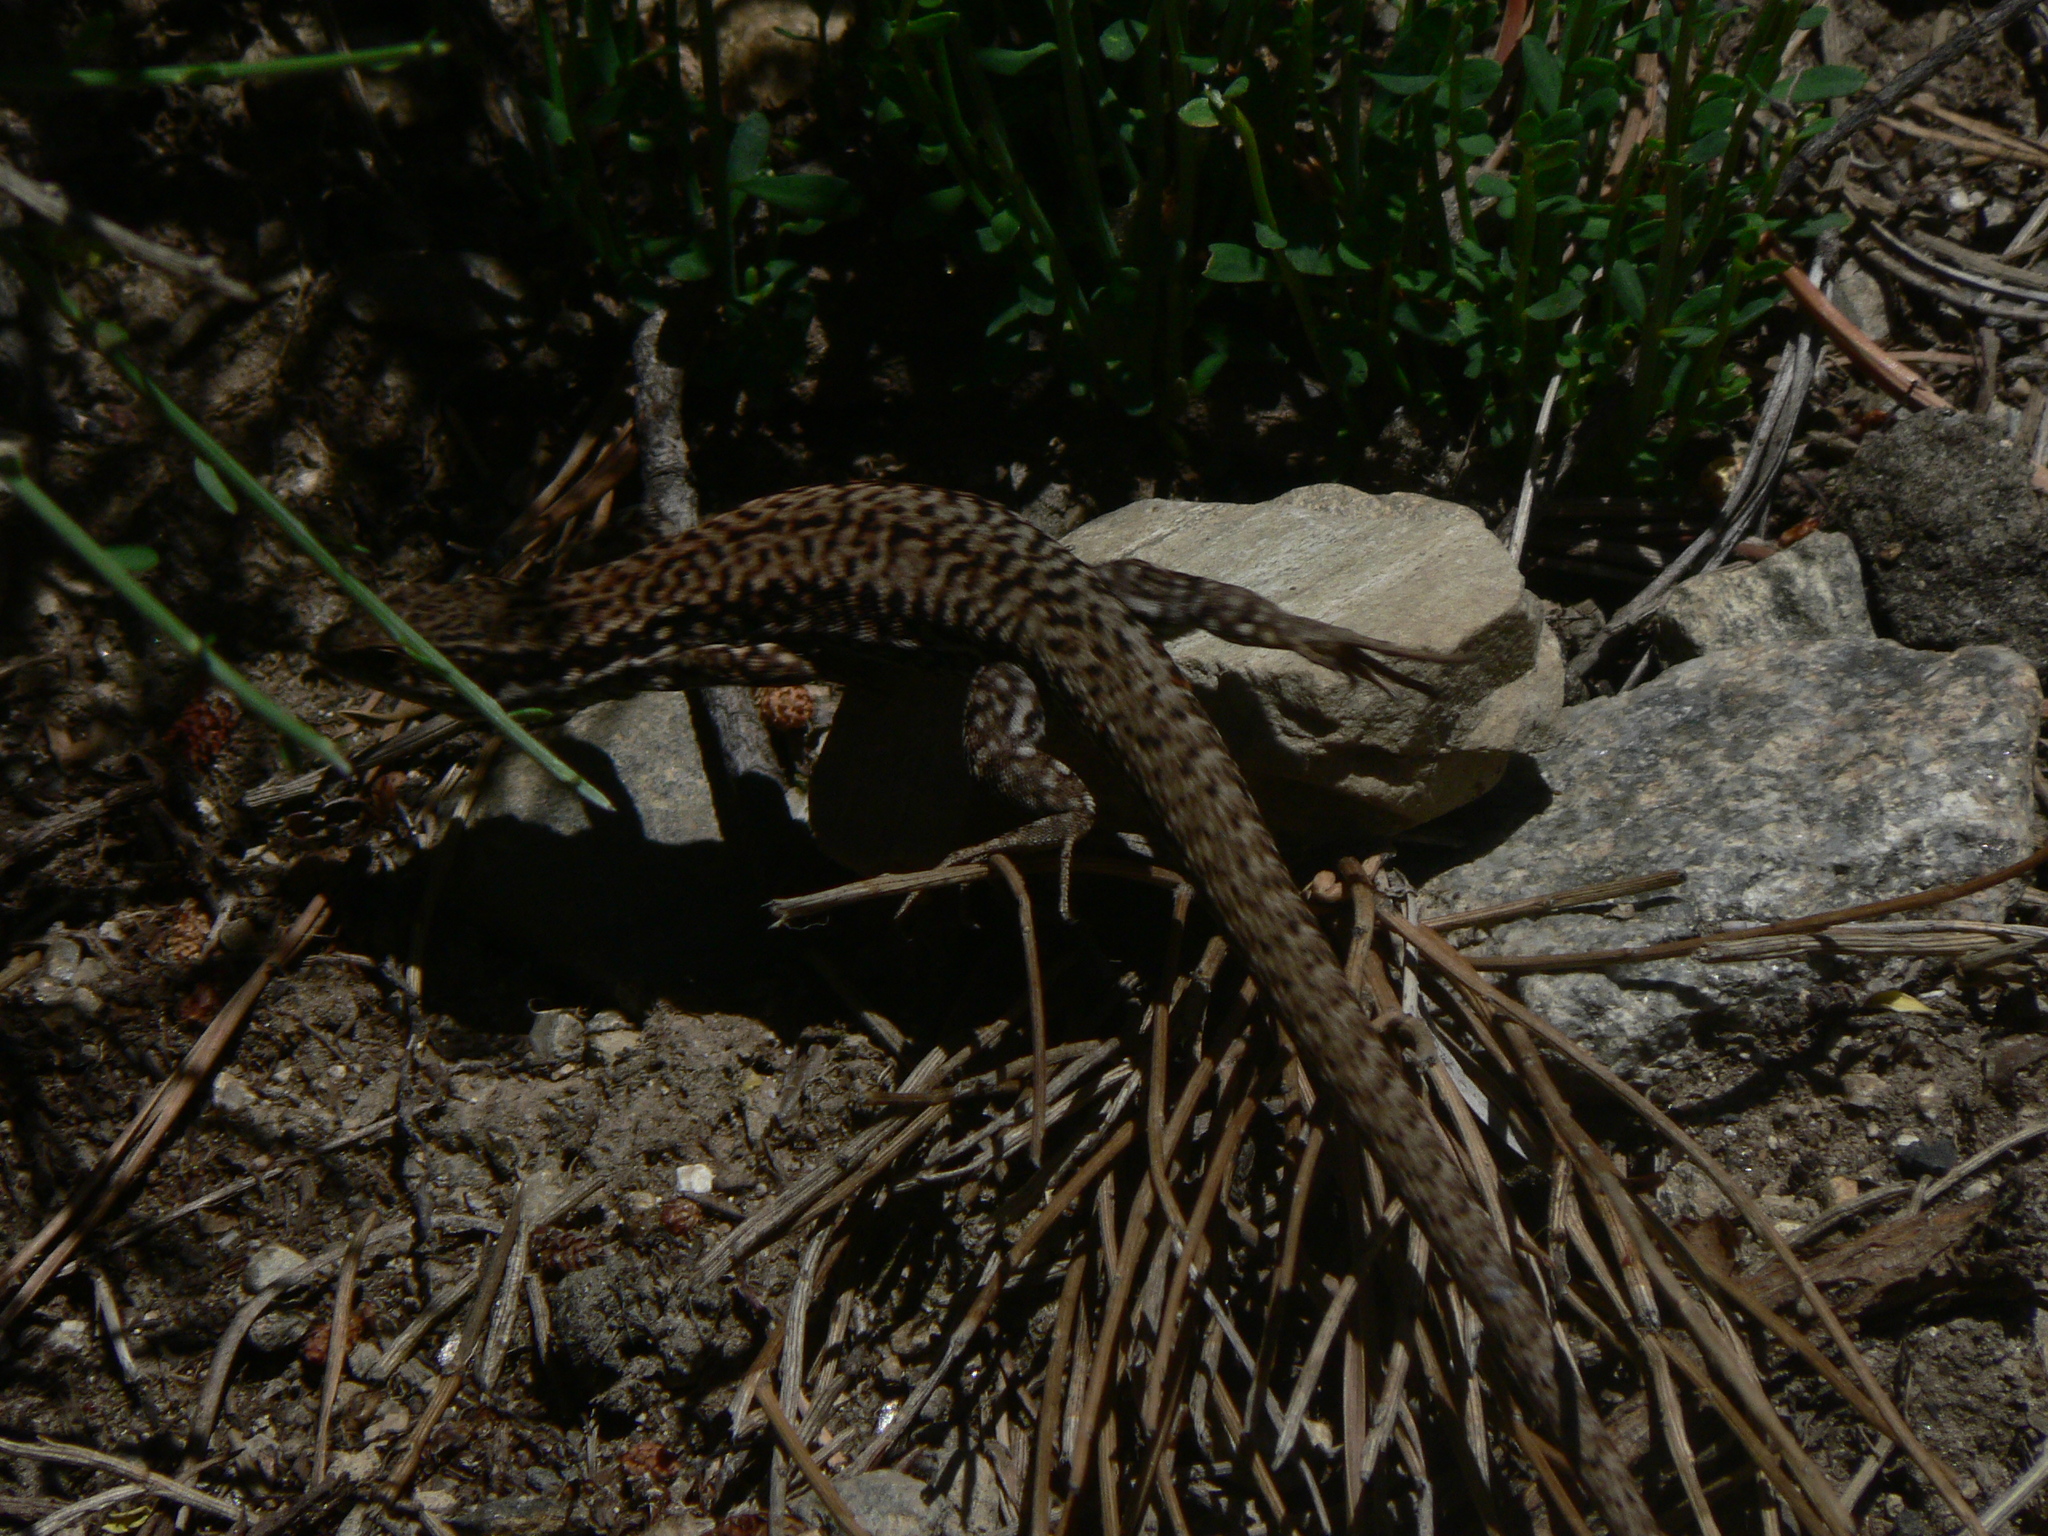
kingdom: Animalia
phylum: Chordata
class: Squamata
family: Lacertidae
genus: Podarcis
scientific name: Podarcis muralis
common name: Common wall lizard
